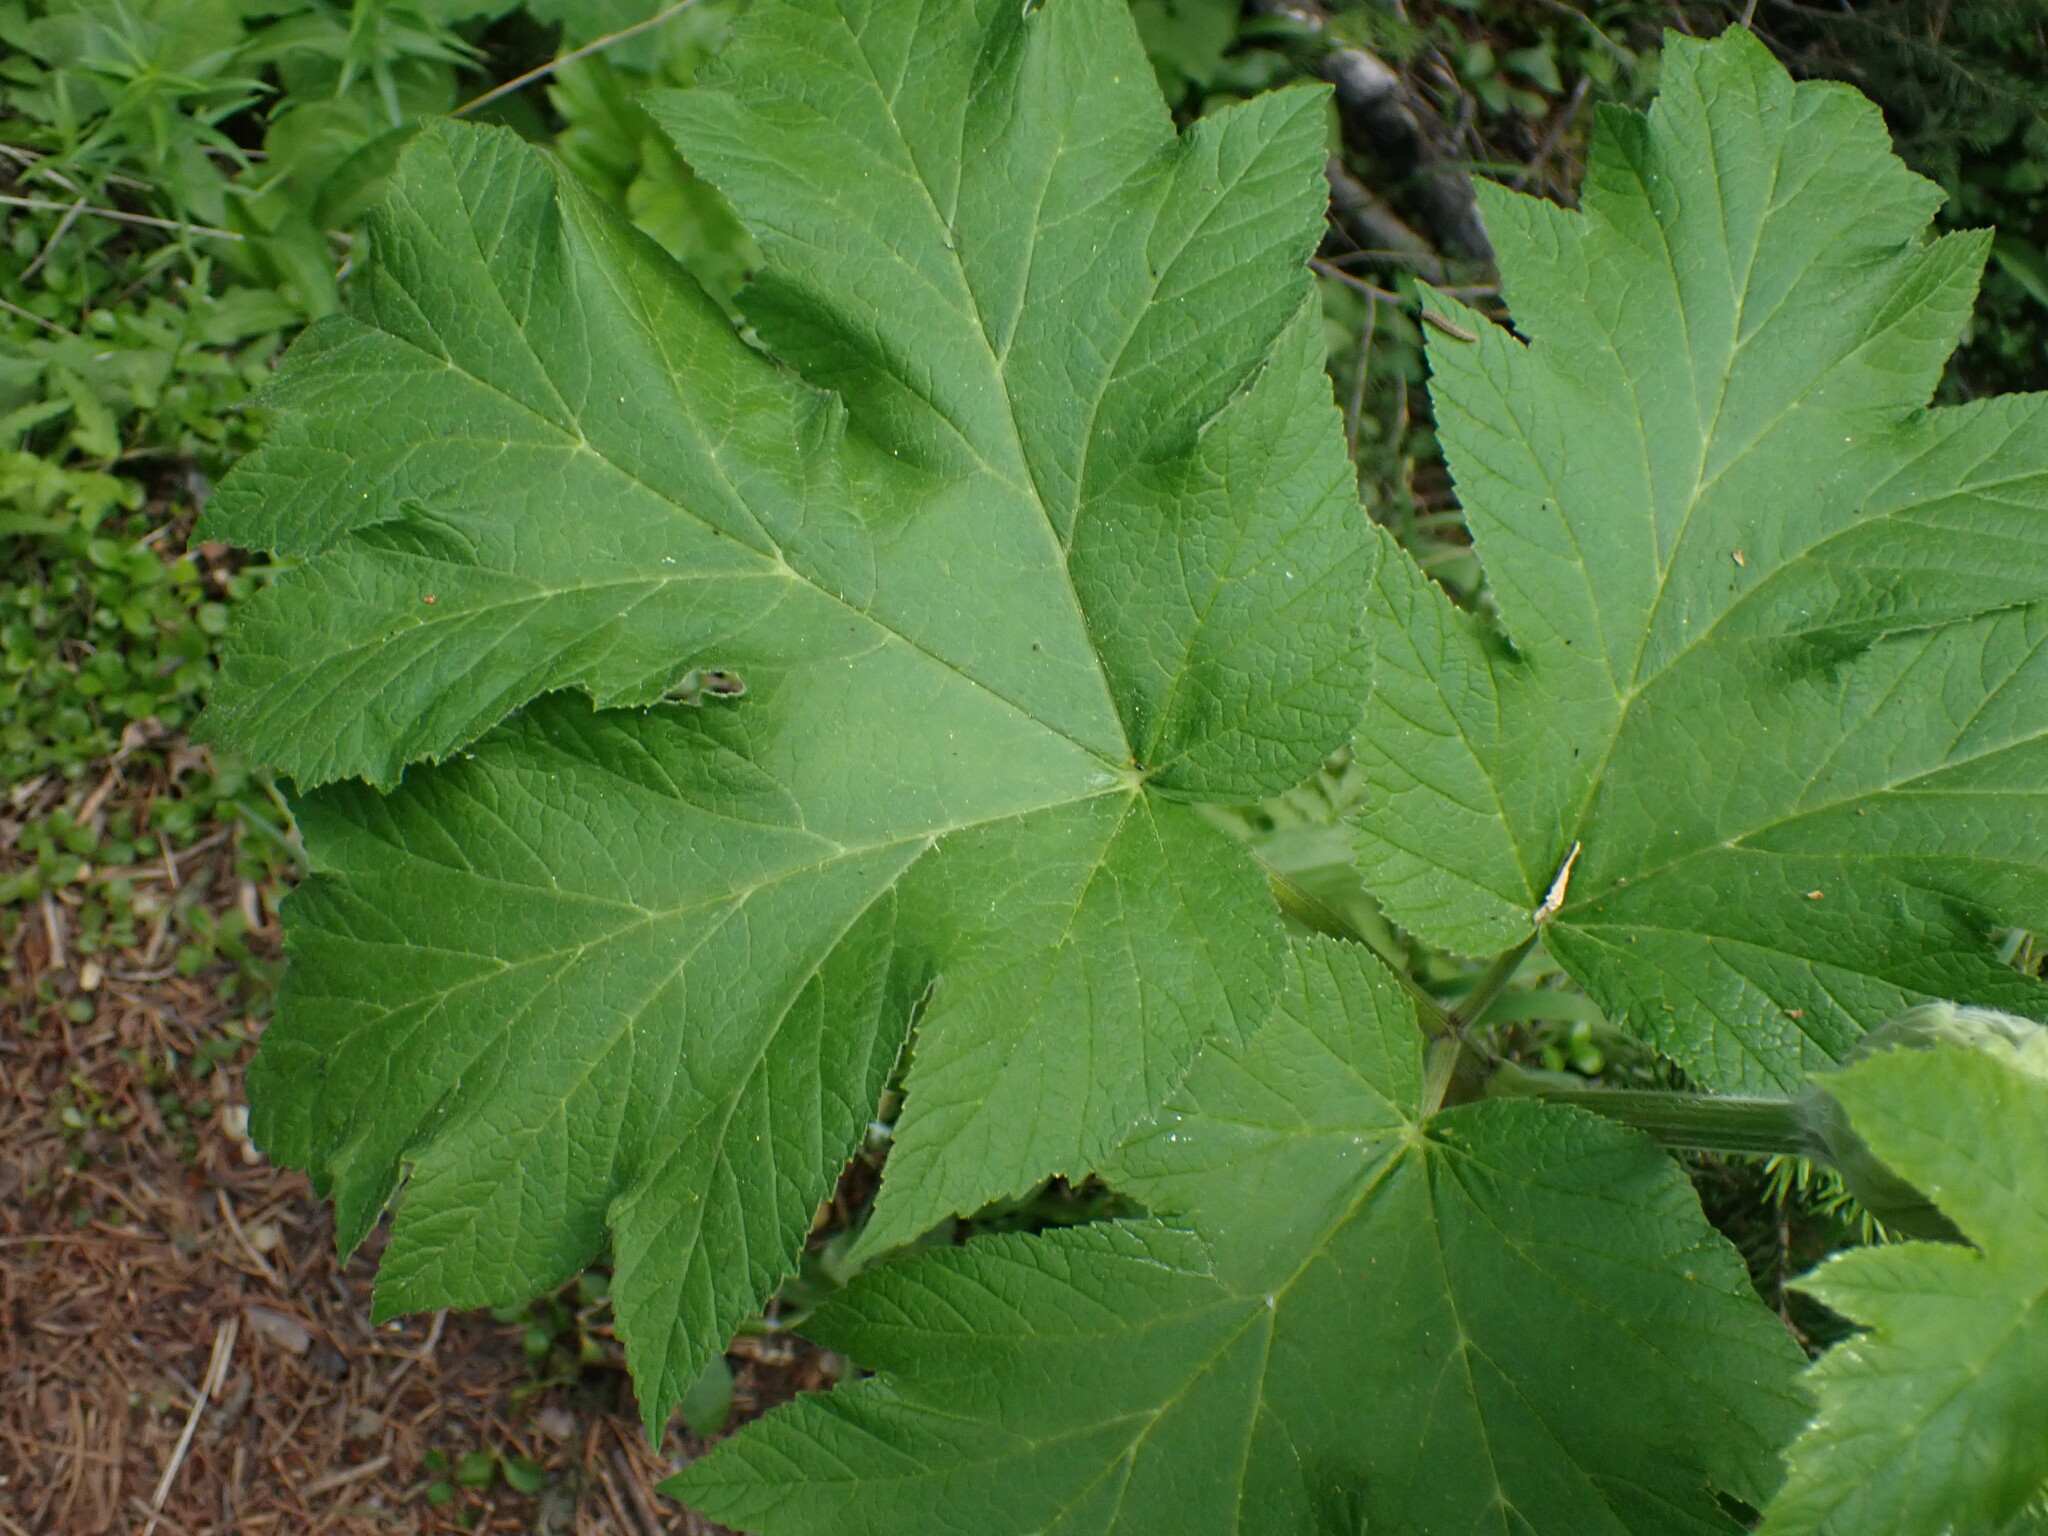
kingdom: Plantae
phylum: Tracheophyta
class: Magnoliopsida
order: Apiales
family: Apiaceae
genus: Heracleum
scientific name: Heracleum maximum
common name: American cow parsnip
